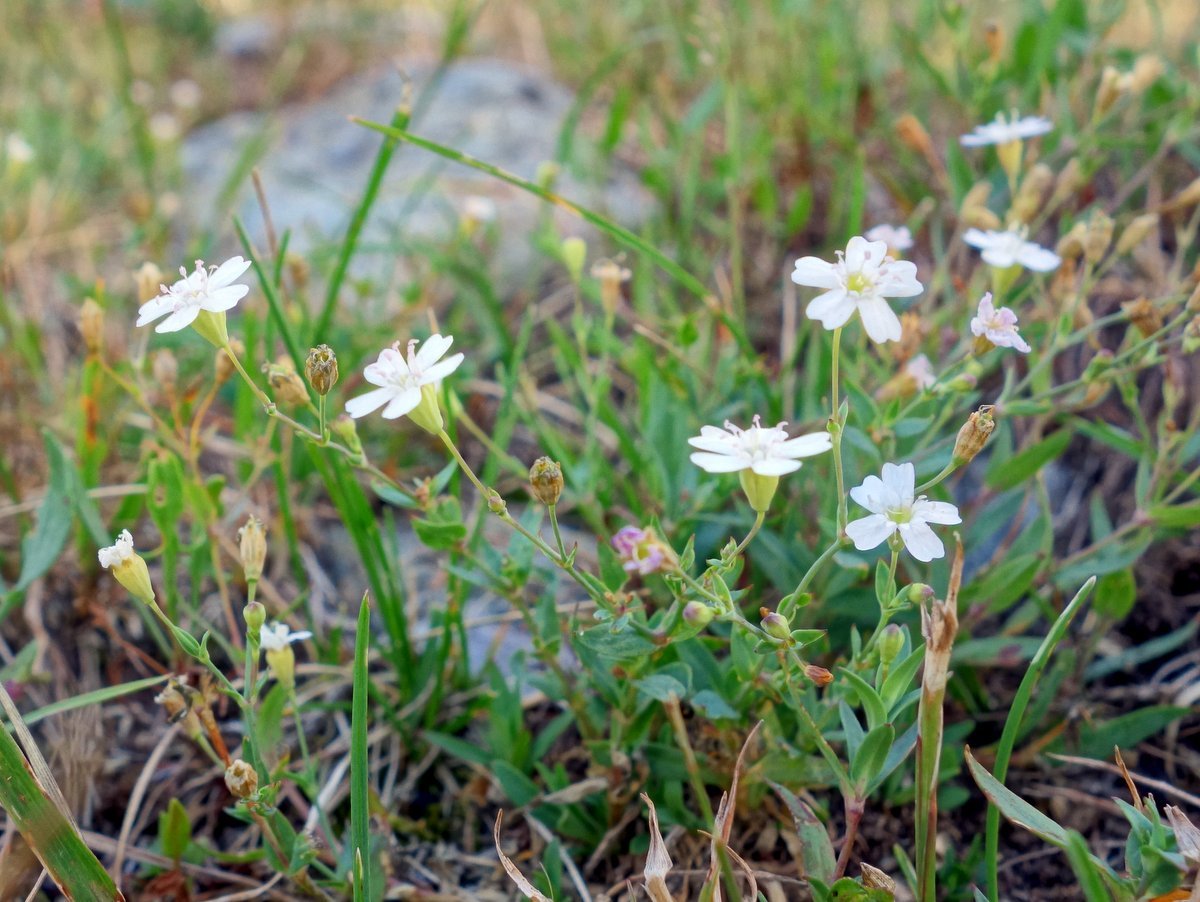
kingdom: Plantae
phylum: Tracheophyta
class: Magnoliopsida
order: Caryophyllales
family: Caryophyllaceae
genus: Atocion
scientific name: Atocion rupestre
